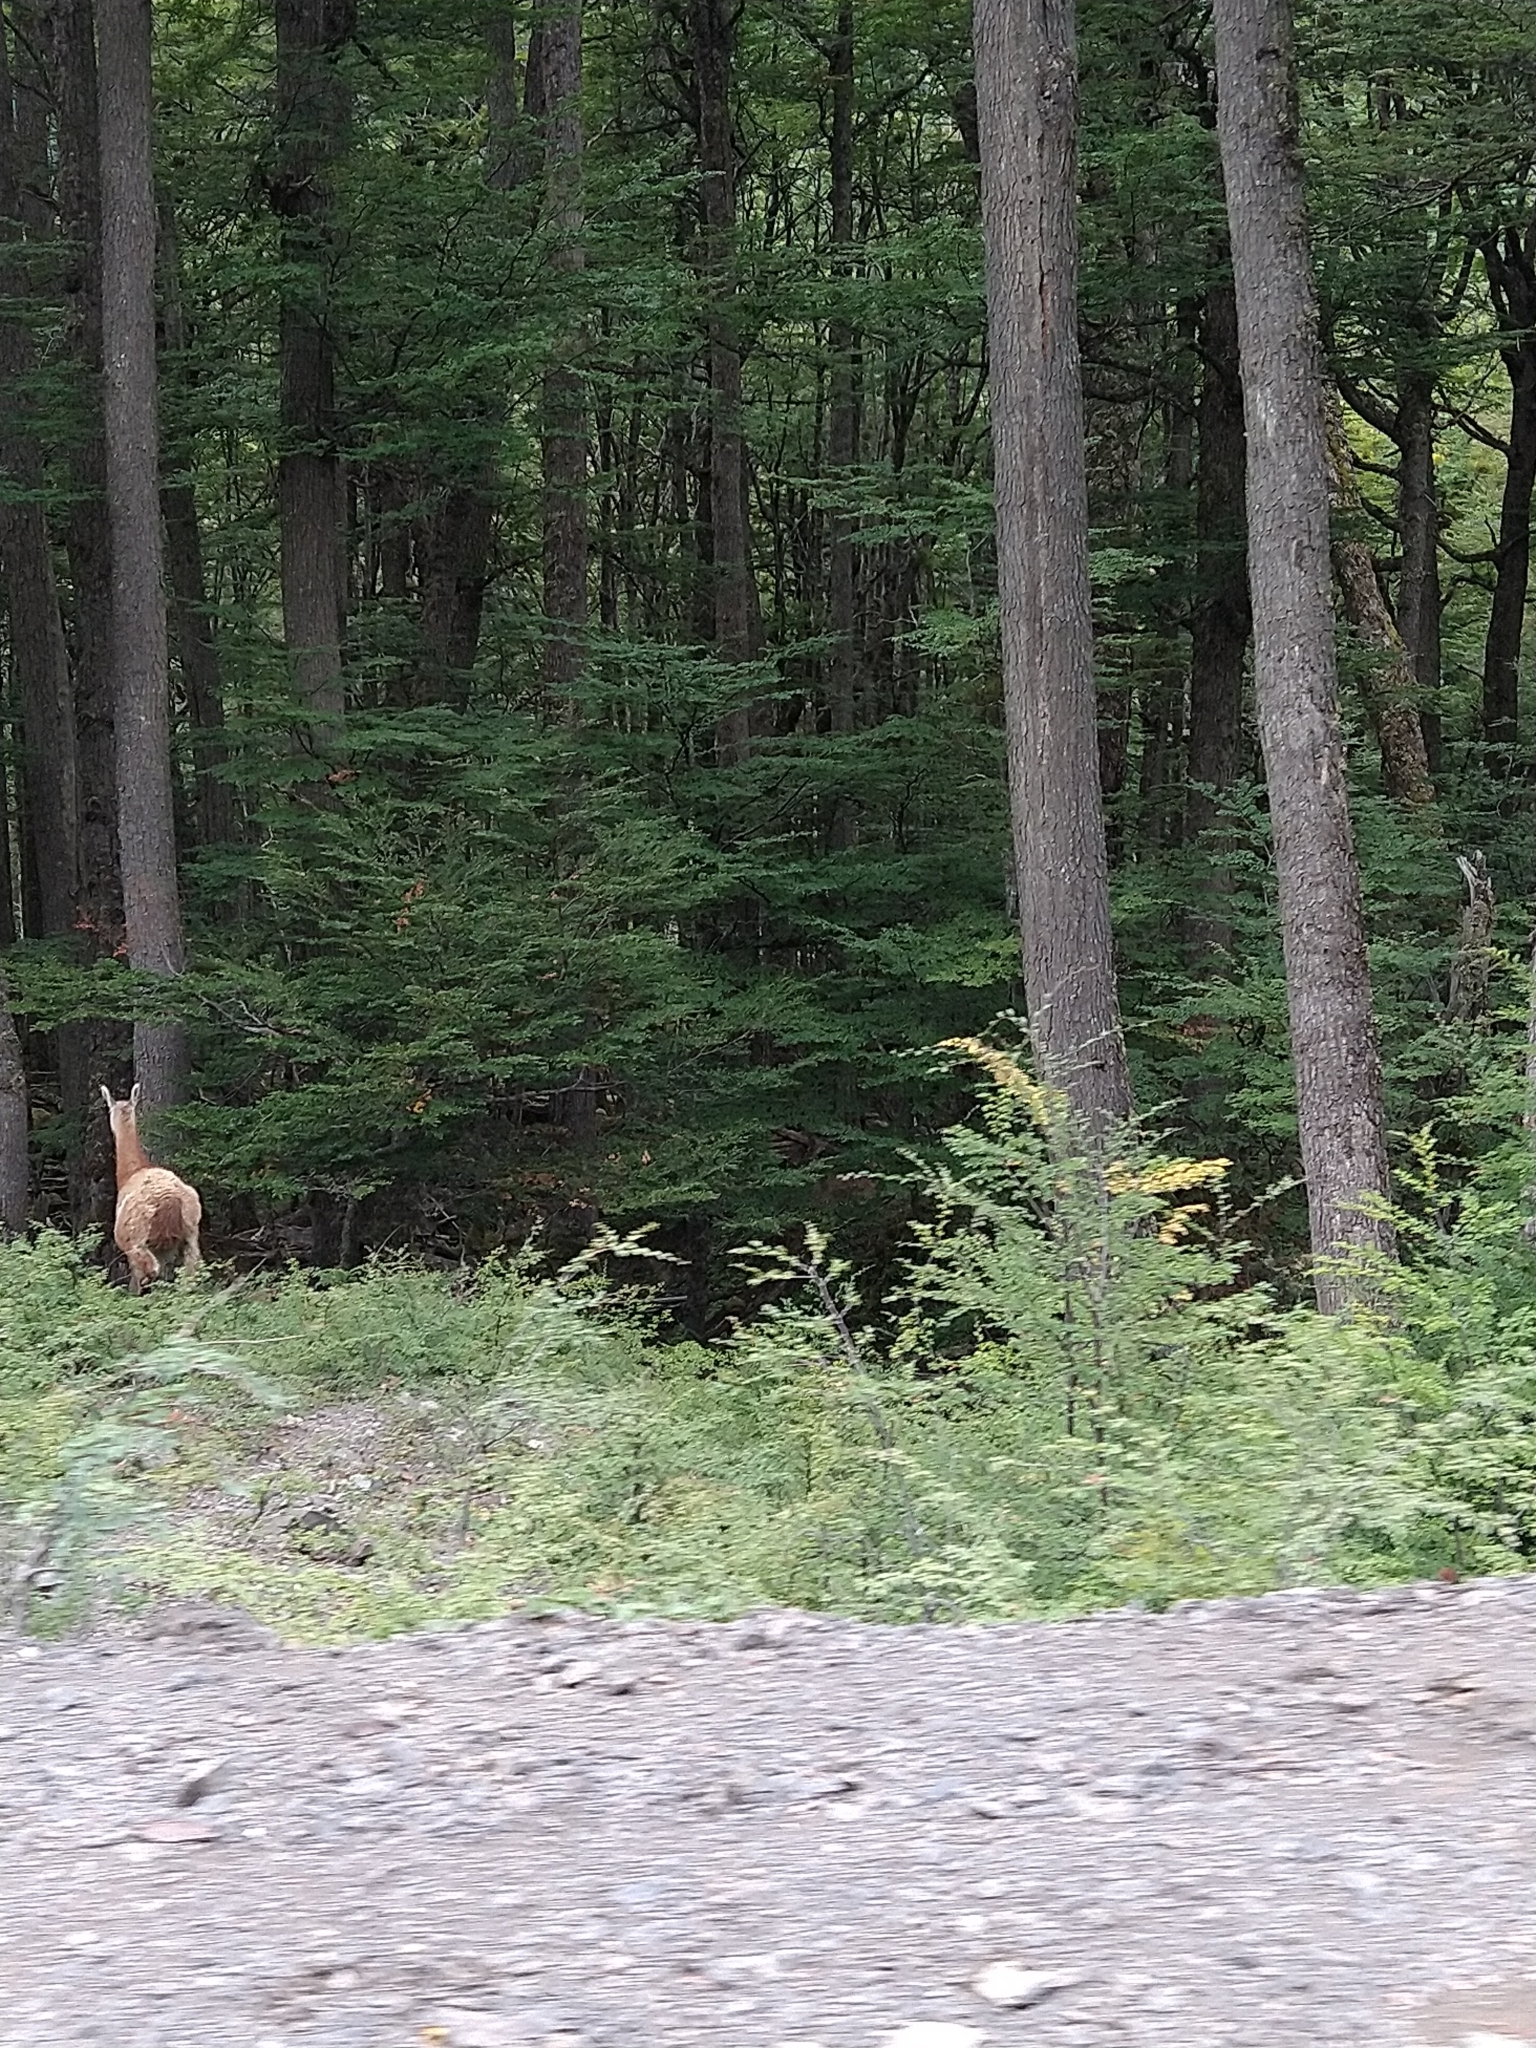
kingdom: Animalia
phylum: Chordata
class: Mammalia
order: Artiodactyla
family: Camelidae
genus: Lama
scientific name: Lama glama
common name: Llama
